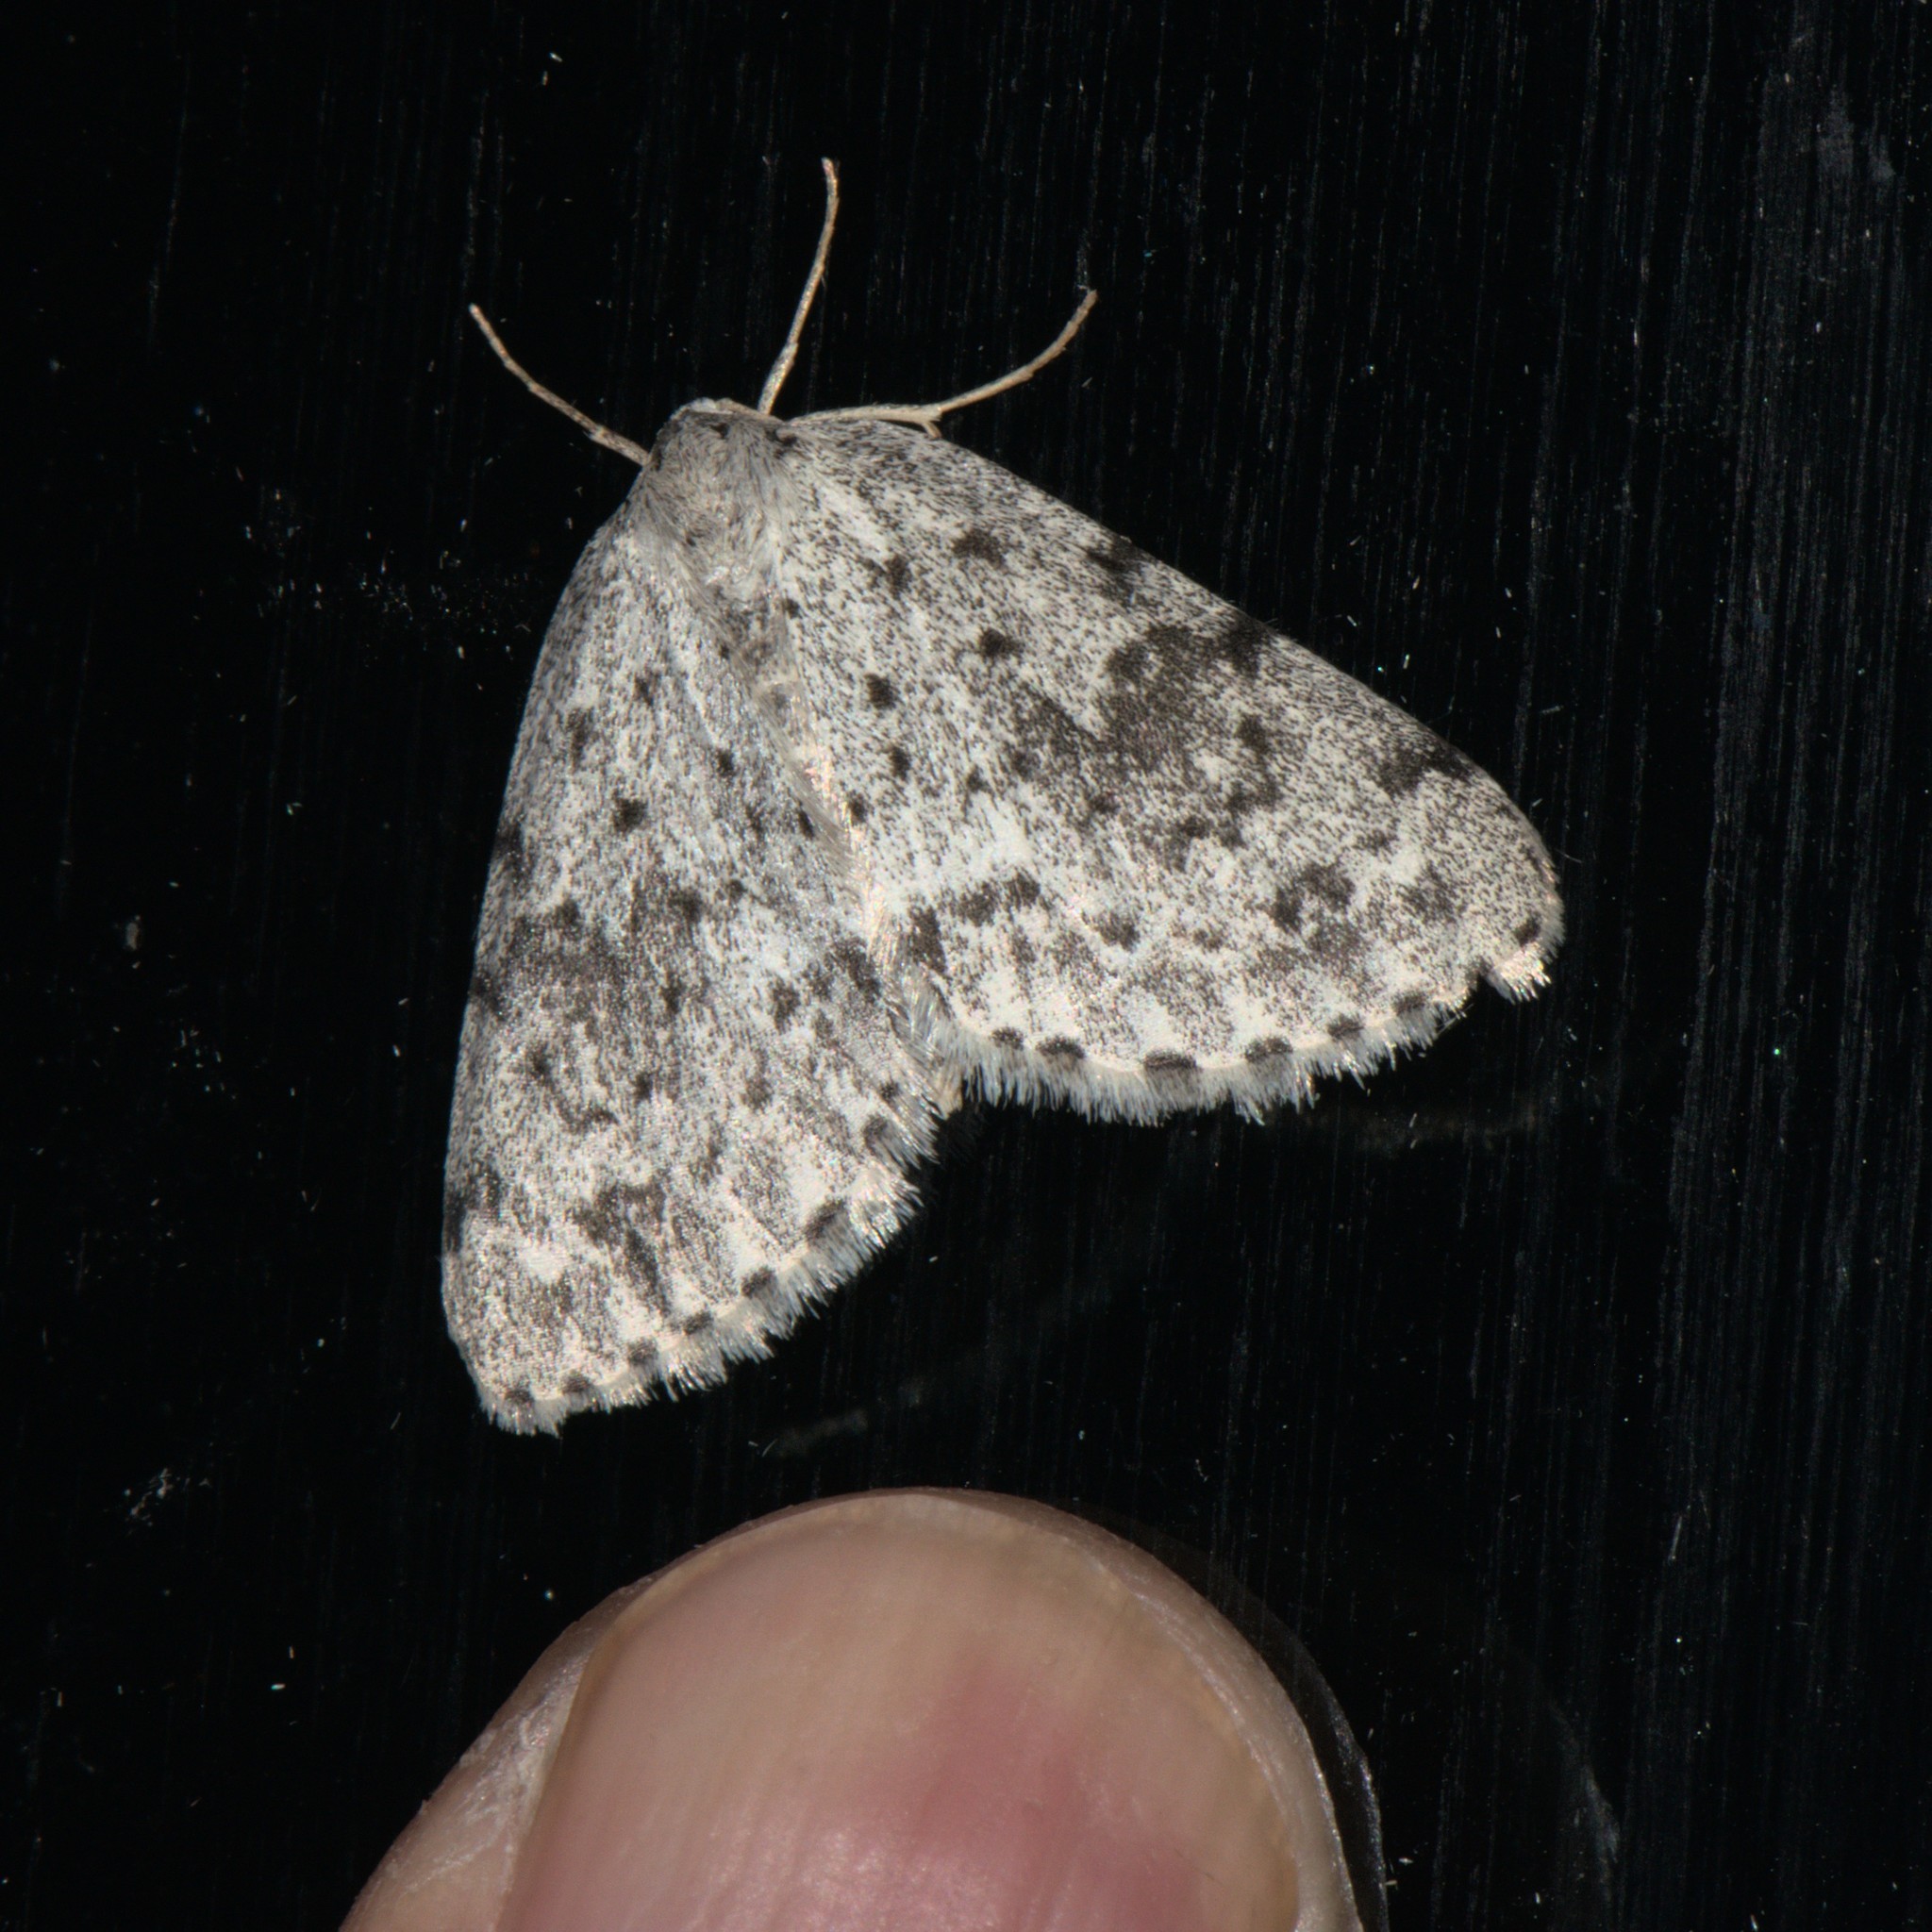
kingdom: Animalia
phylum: Arthropoda
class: Insecta
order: Lepidoptera
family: Geometridae
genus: Naxidia
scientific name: Naxidia punctata
